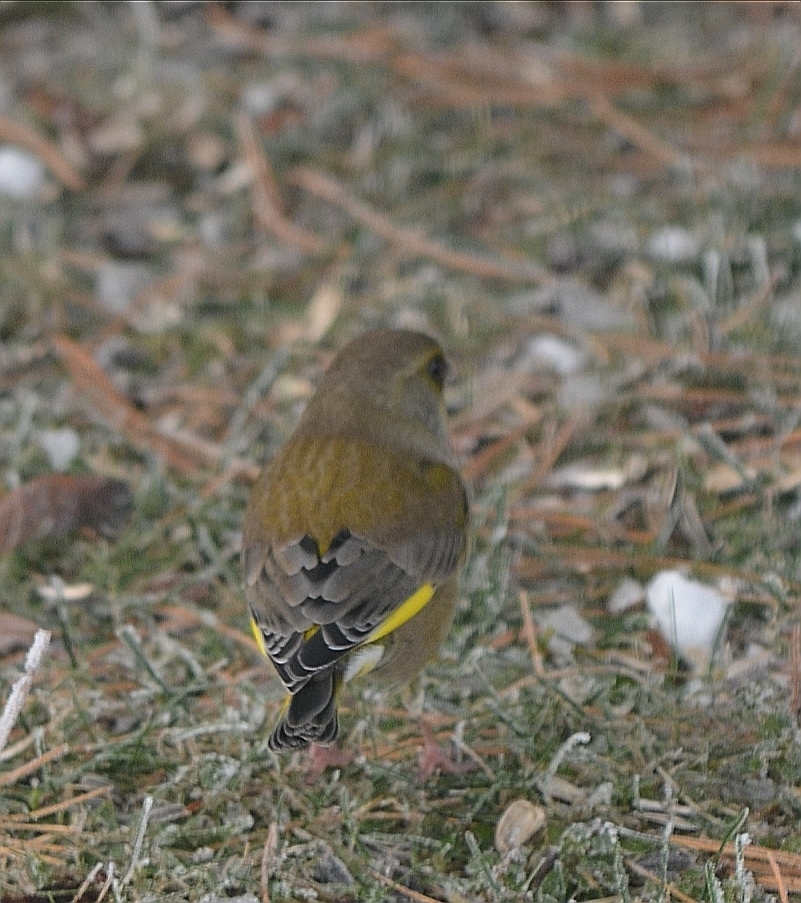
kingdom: Plantae
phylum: Tracheophyta
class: Liliopsida
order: Poales
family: Poaceae
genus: Chloris
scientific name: Chloris chloris
